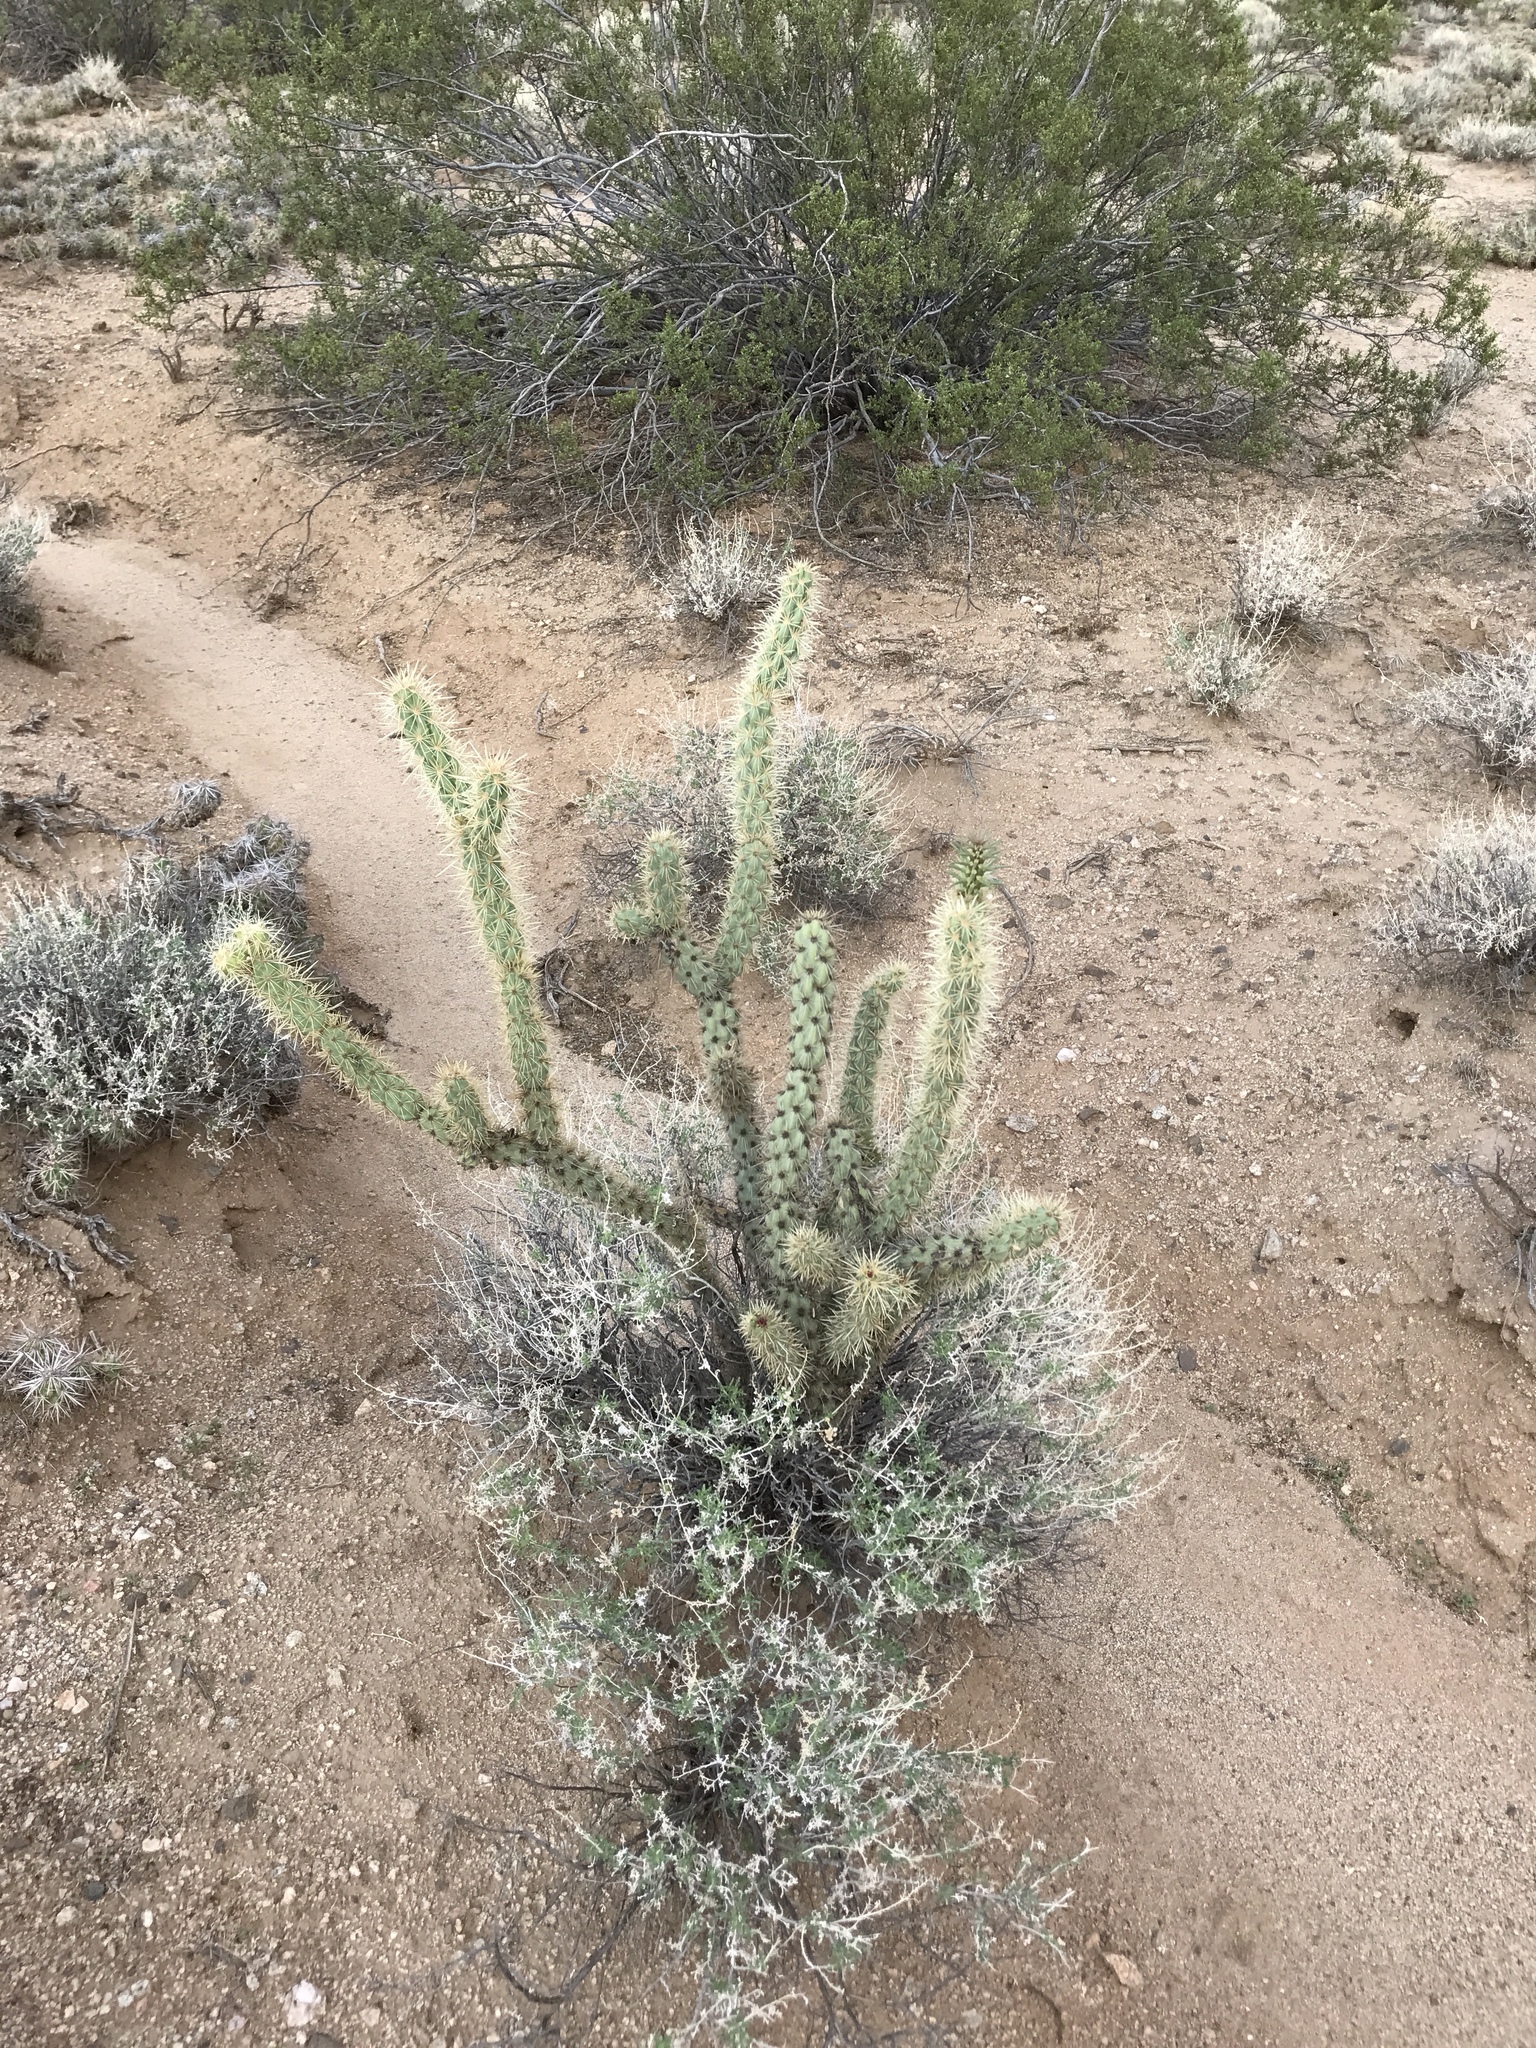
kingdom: Plantae
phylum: Tracheophyta
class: Magnoliopsida
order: Caryophyllales
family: Cactaceae
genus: Cylindropuntia
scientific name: Cylindropuntia acanthocarpa
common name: Buckhorn cholla
